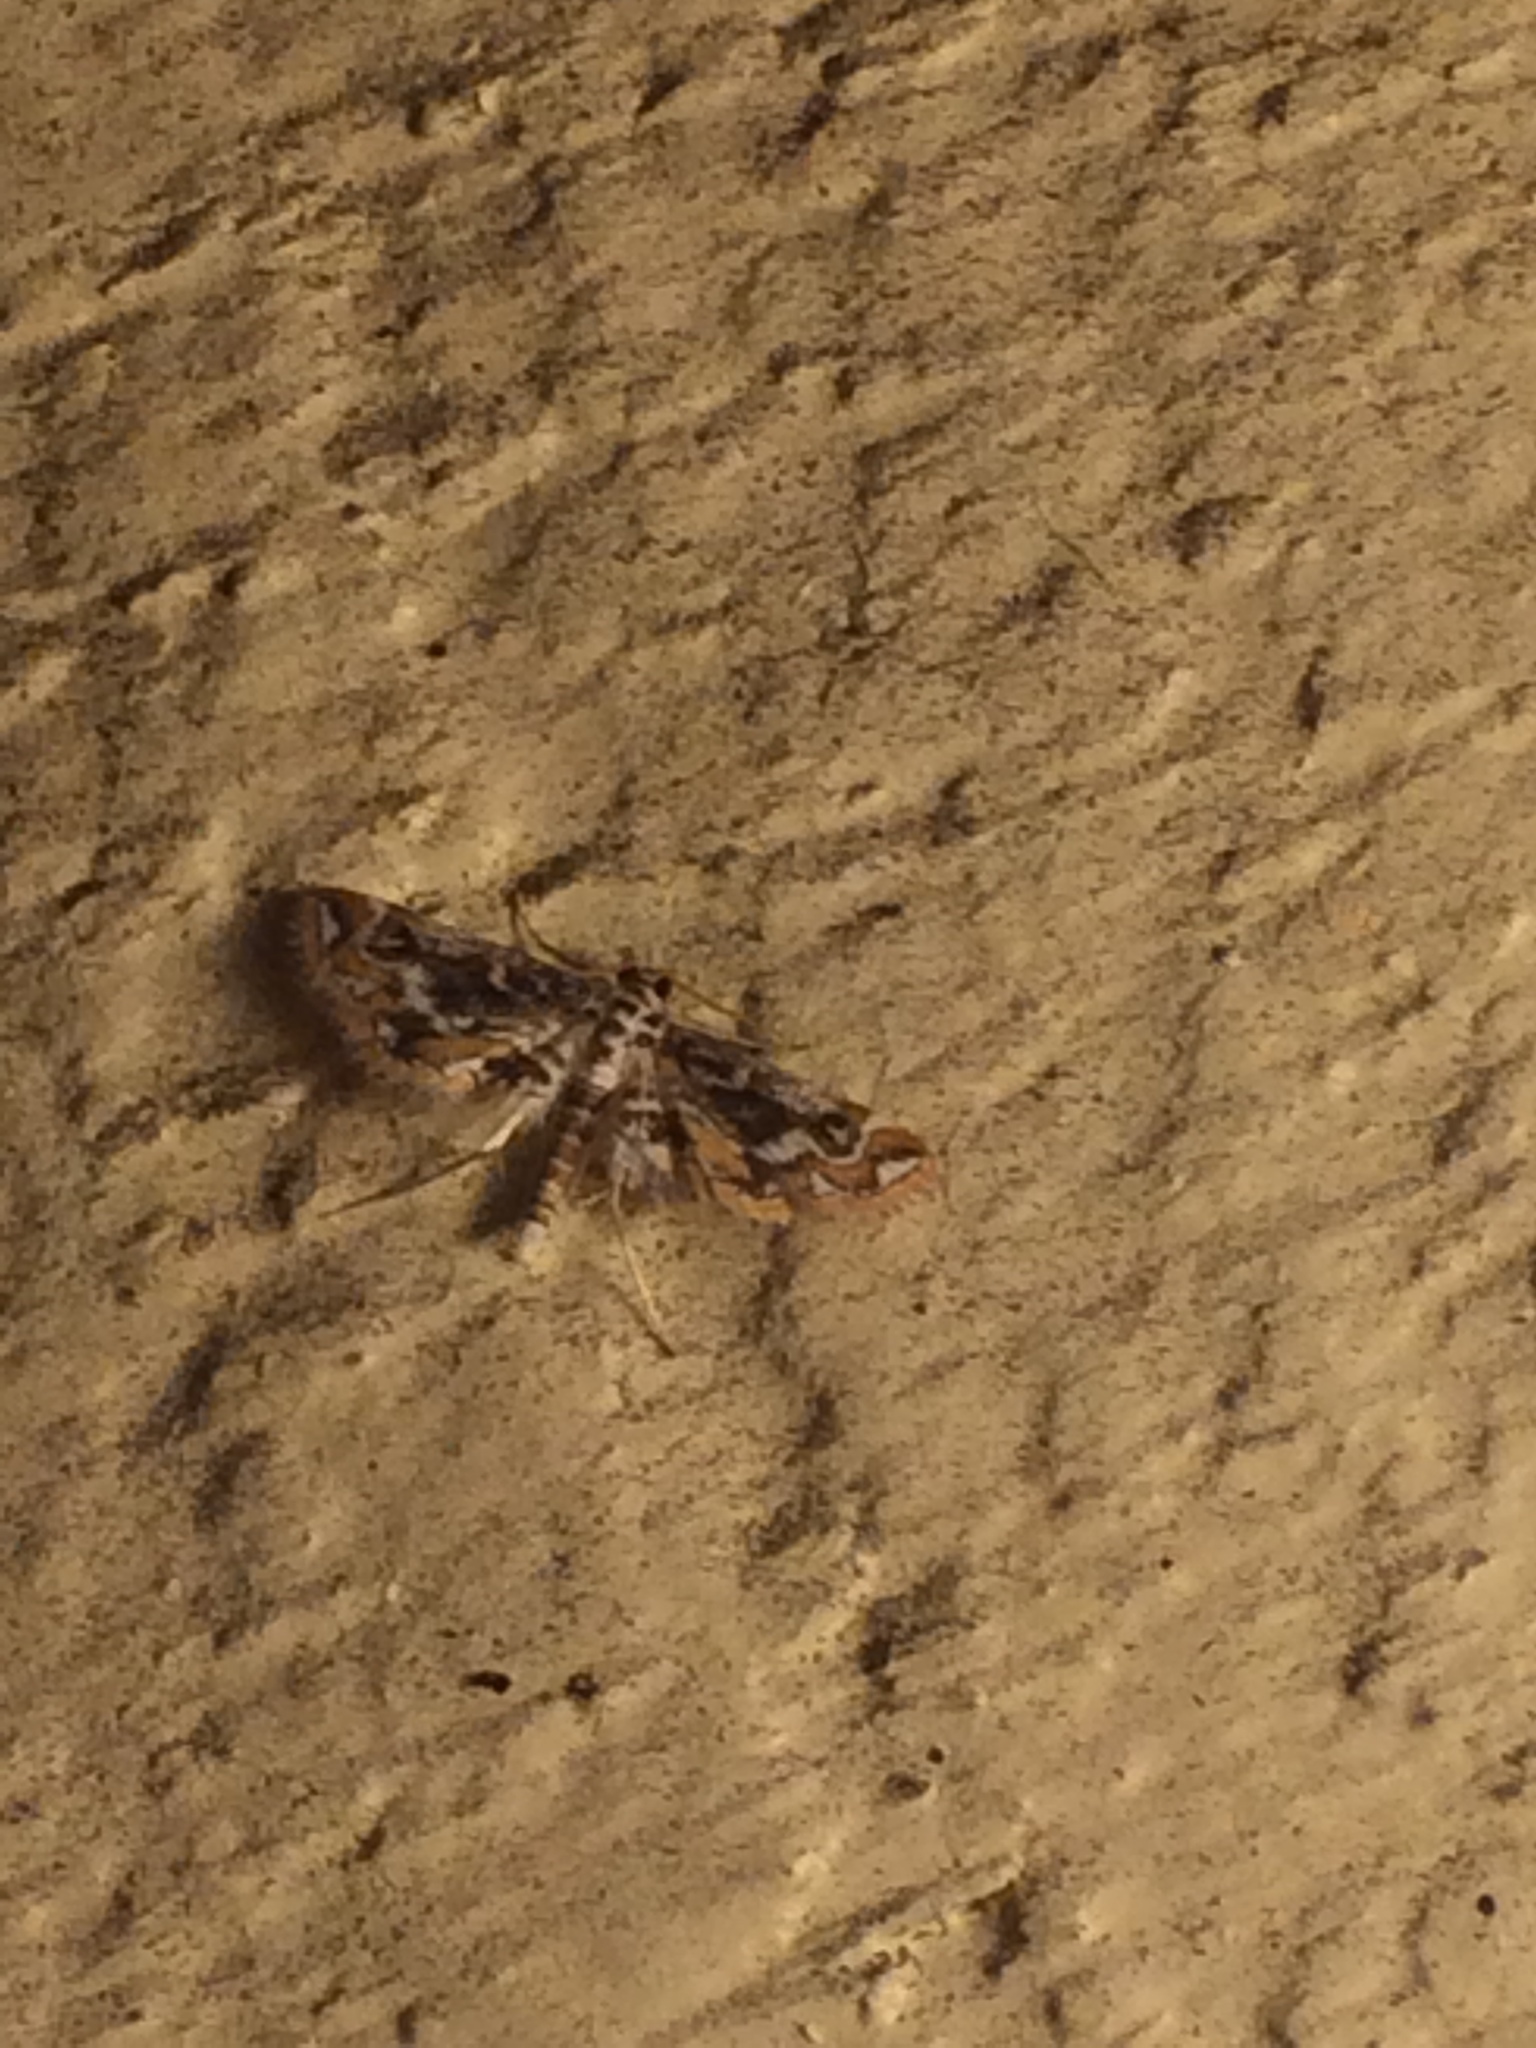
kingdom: Animalia
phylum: Arthropoda
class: Insecta
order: Lepidoptera
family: Crambidae
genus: Parapoynx
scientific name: Parapoynx diminutalis
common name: Hydrilla leafcutter
